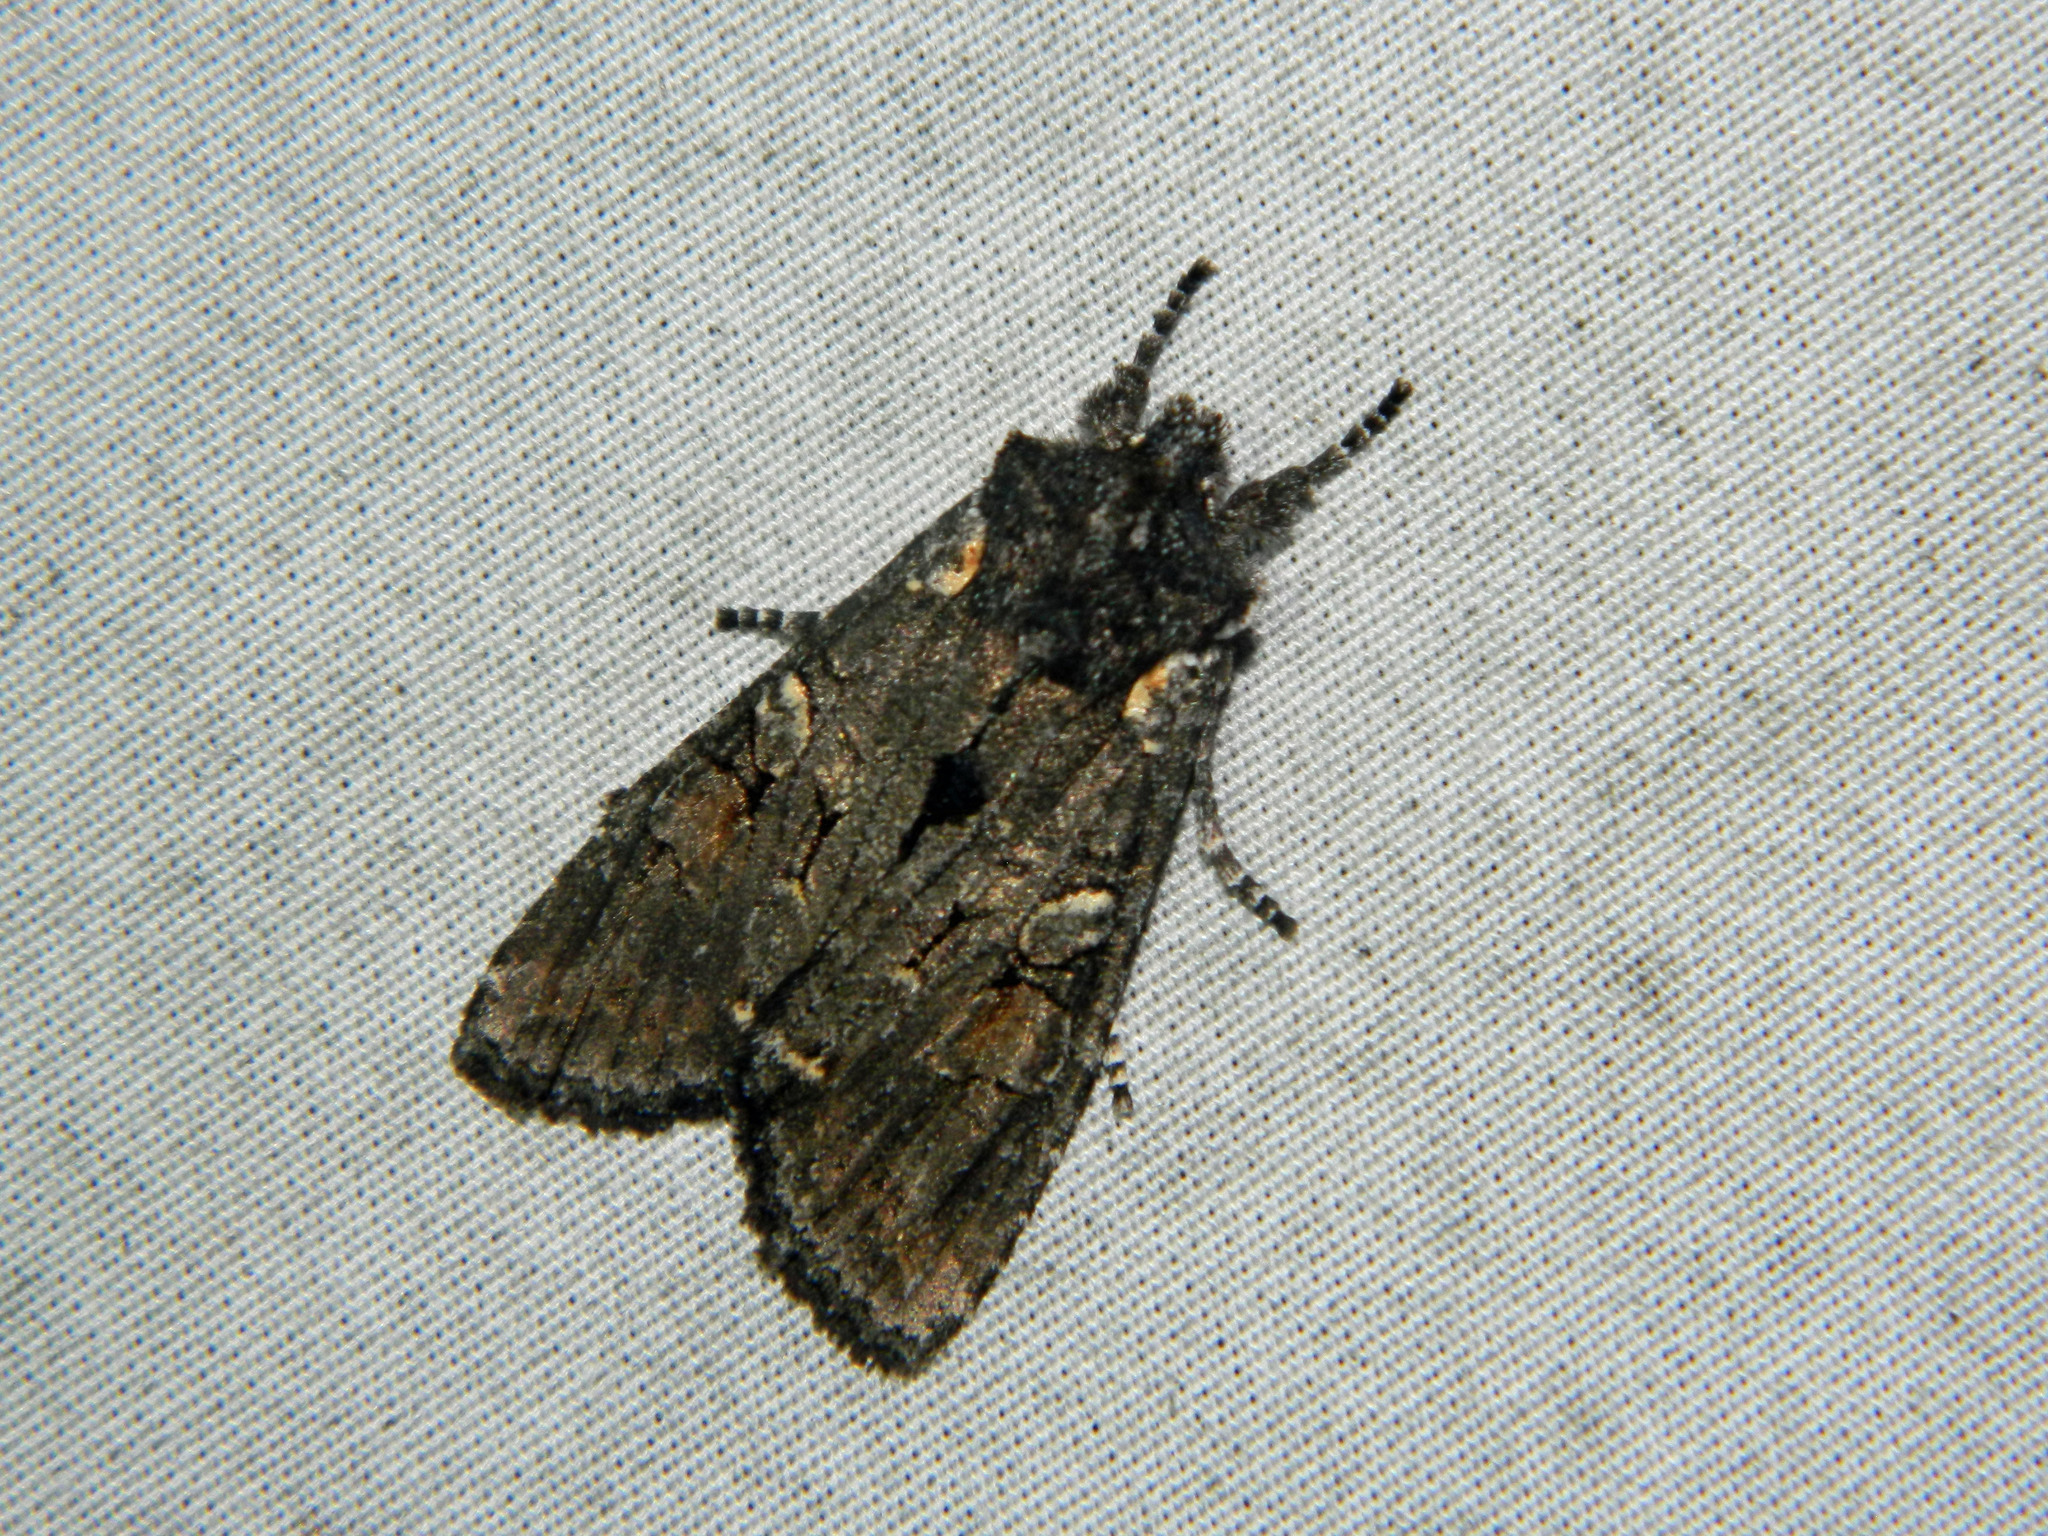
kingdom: Animalia
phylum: Arthropoda
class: Insecta
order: Lepidoptera
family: Noctuidae
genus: Lithophane
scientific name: Lithophane pexata
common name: Plush-naped pinion moth
